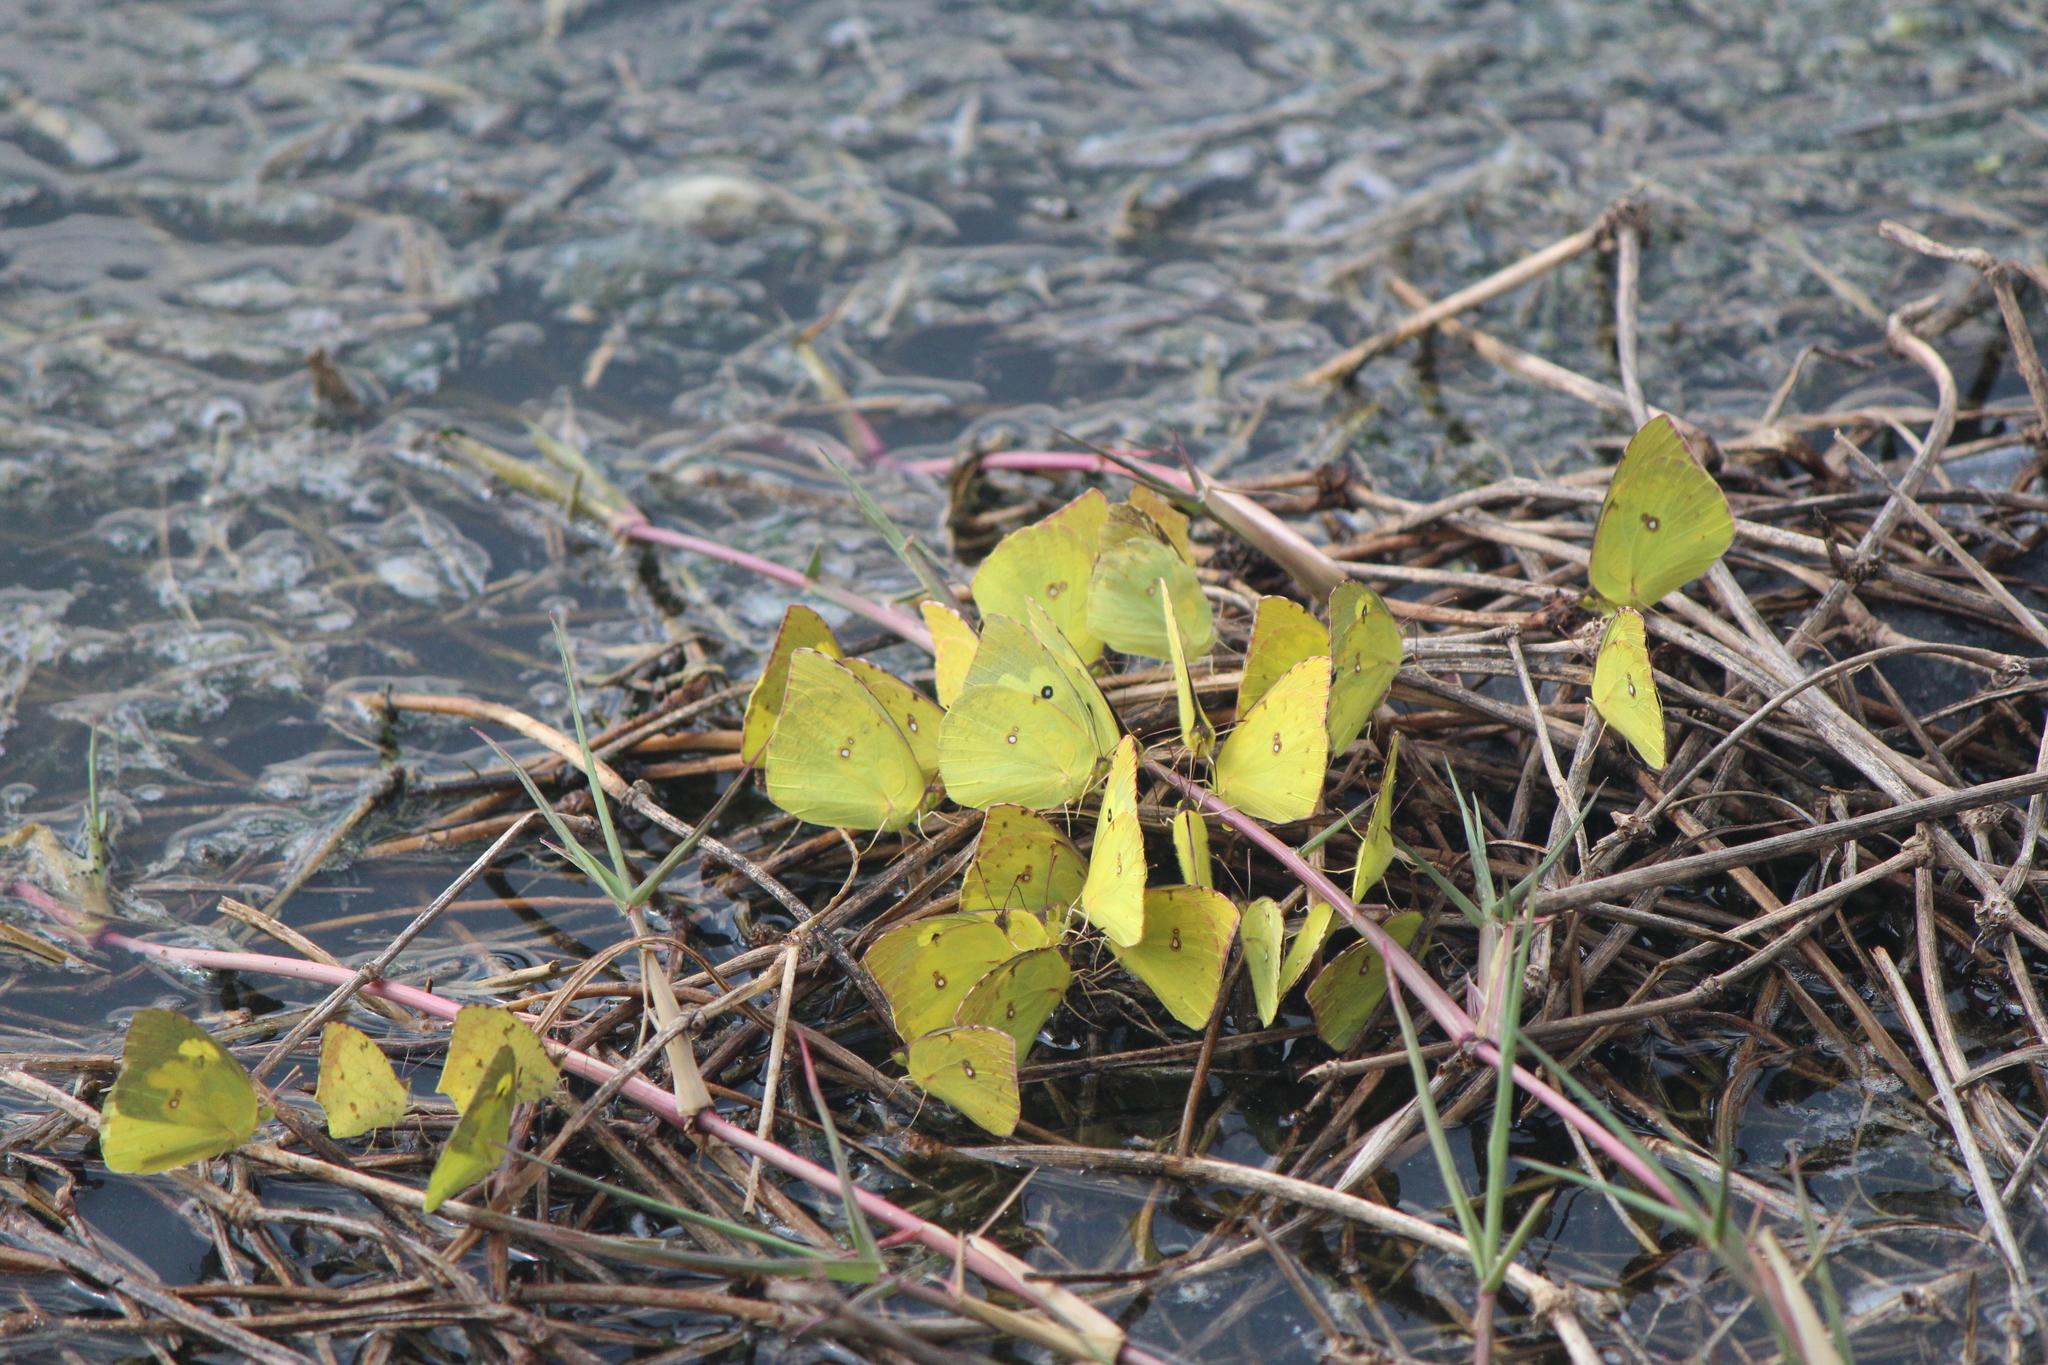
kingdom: Animalia
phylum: Arthropoda
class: Insecta
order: Lepidoptera
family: Pieridae
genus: Zerene
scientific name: Zerene cesonia
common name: Southern dogface
